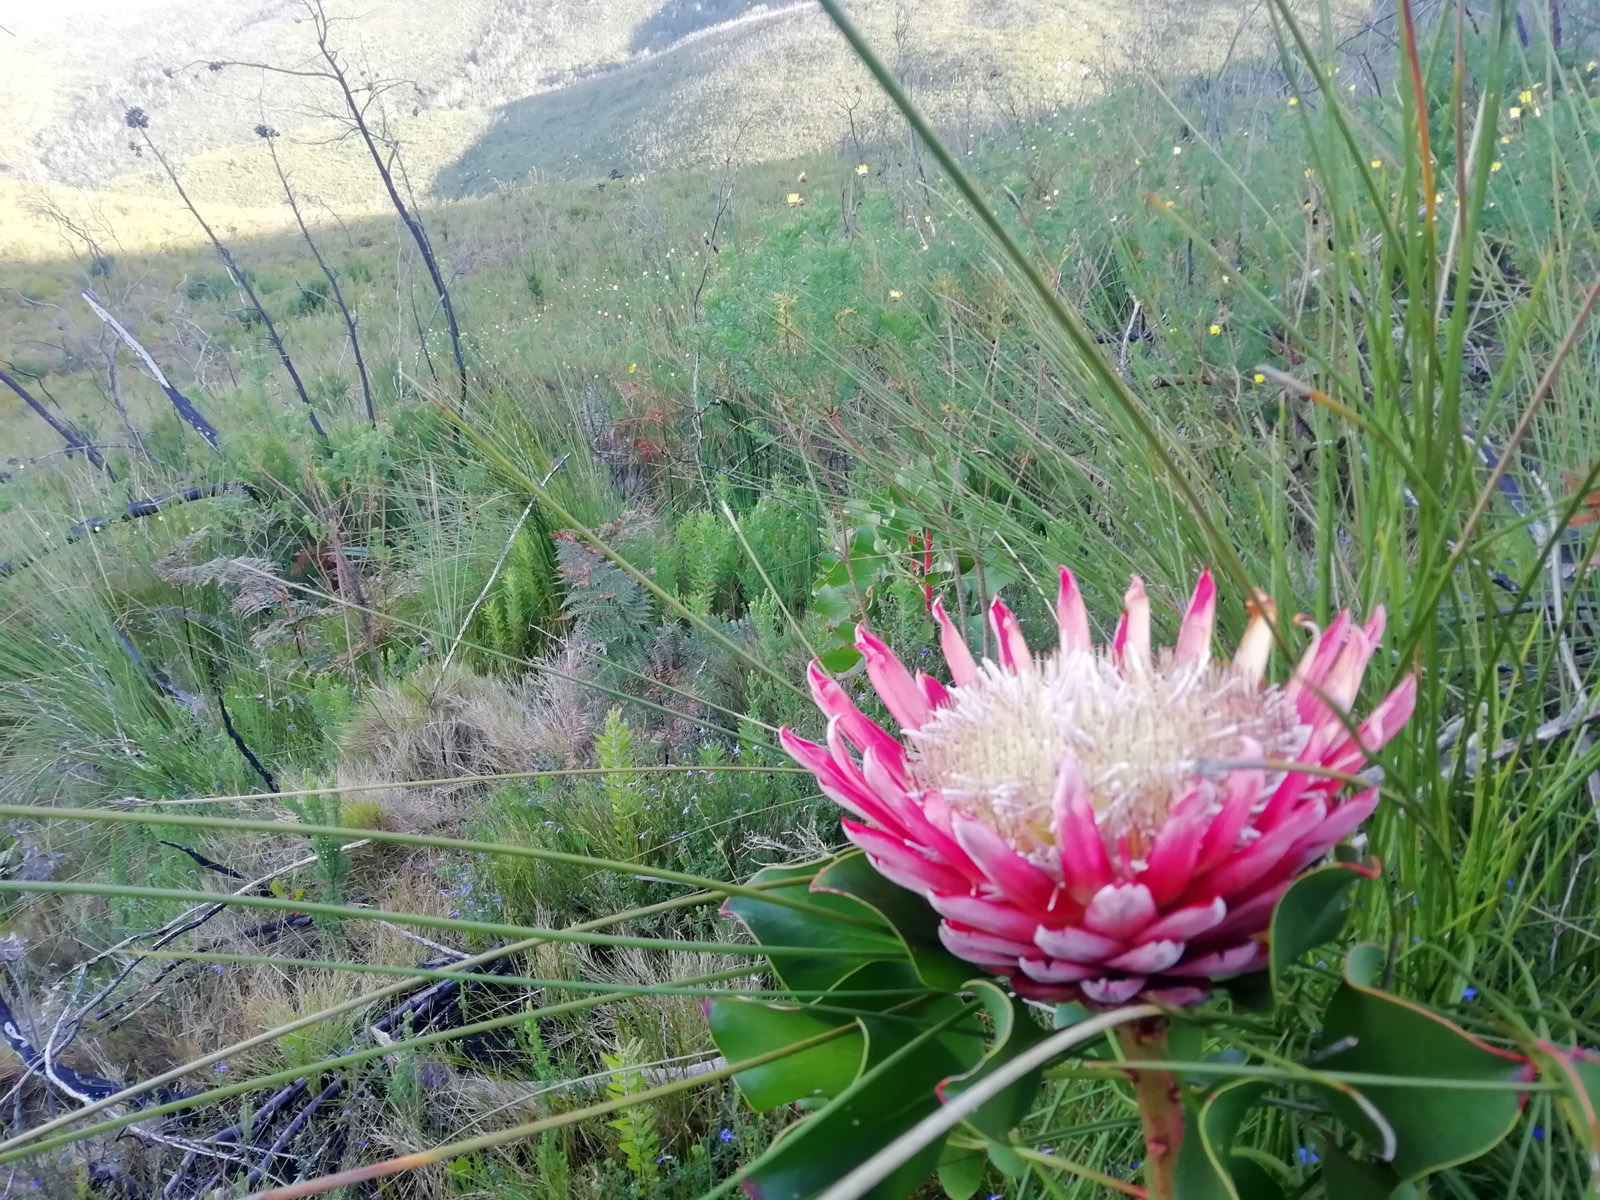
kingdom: Plantae
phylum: Tracheophyta
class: Magnoliopsida
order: Proteales
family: Proteaceae
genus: Protea
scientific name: Protea cynaroides
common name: King protea
